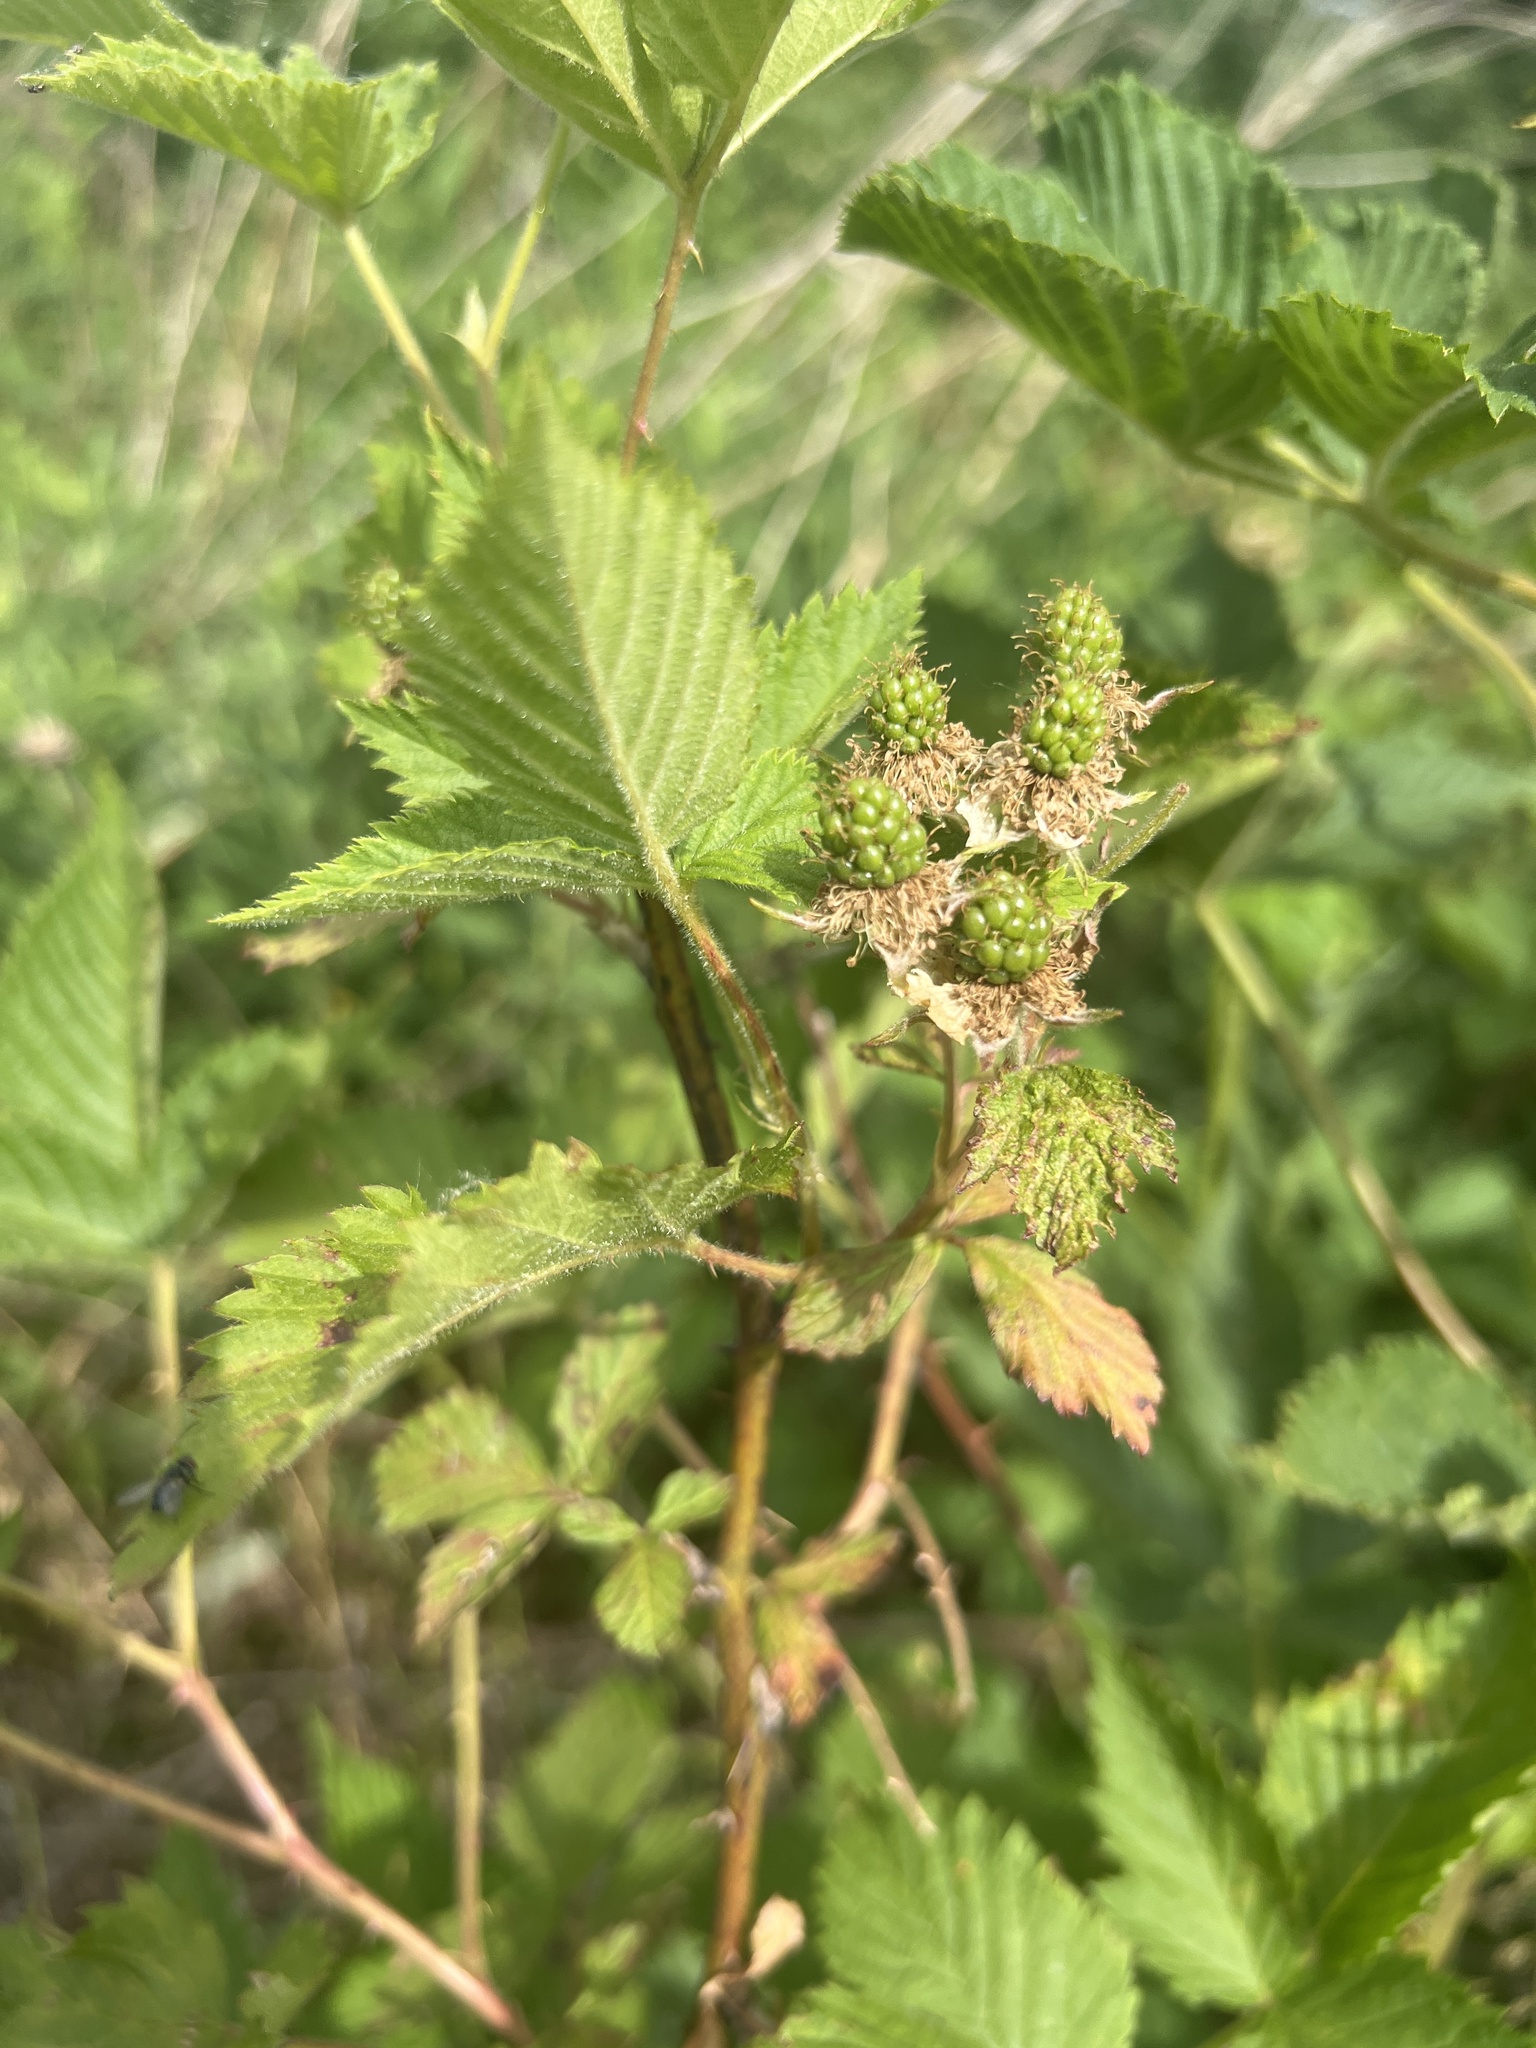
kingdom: Plantae
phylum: Tracheophyta
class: Magnoliopsida
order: Rosales
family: Rosaceae
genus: Rubus
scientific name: Rubus allegheniensis
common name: Allegheny blackberry
